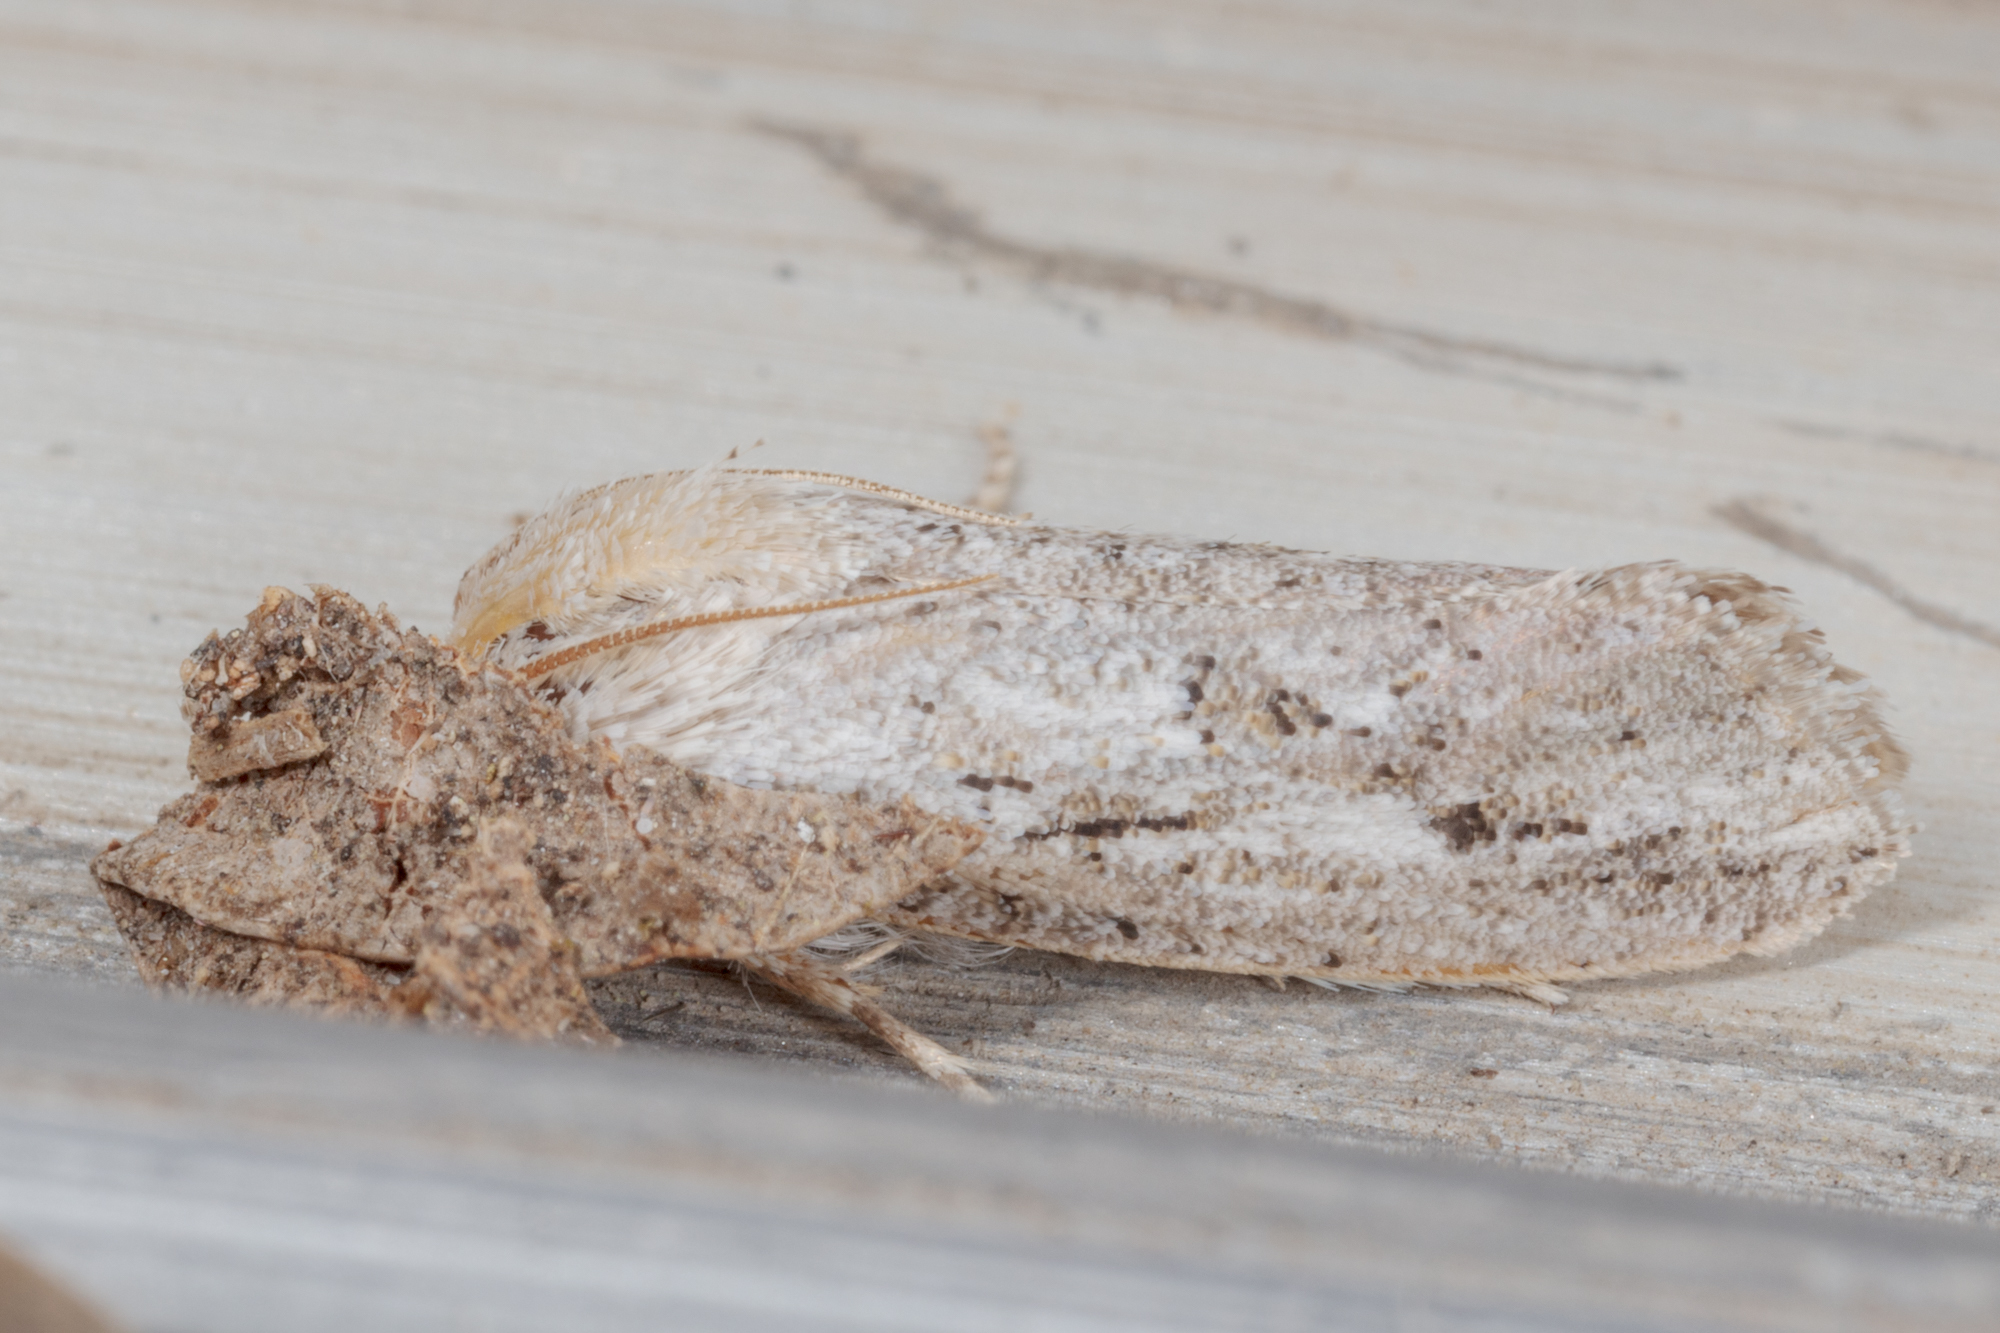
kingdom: Animalia
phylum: Arthropoda
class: Insecta
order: Lepidoptera
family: Tineidae
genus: Acrolophus
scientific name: Acrolophus griseus
